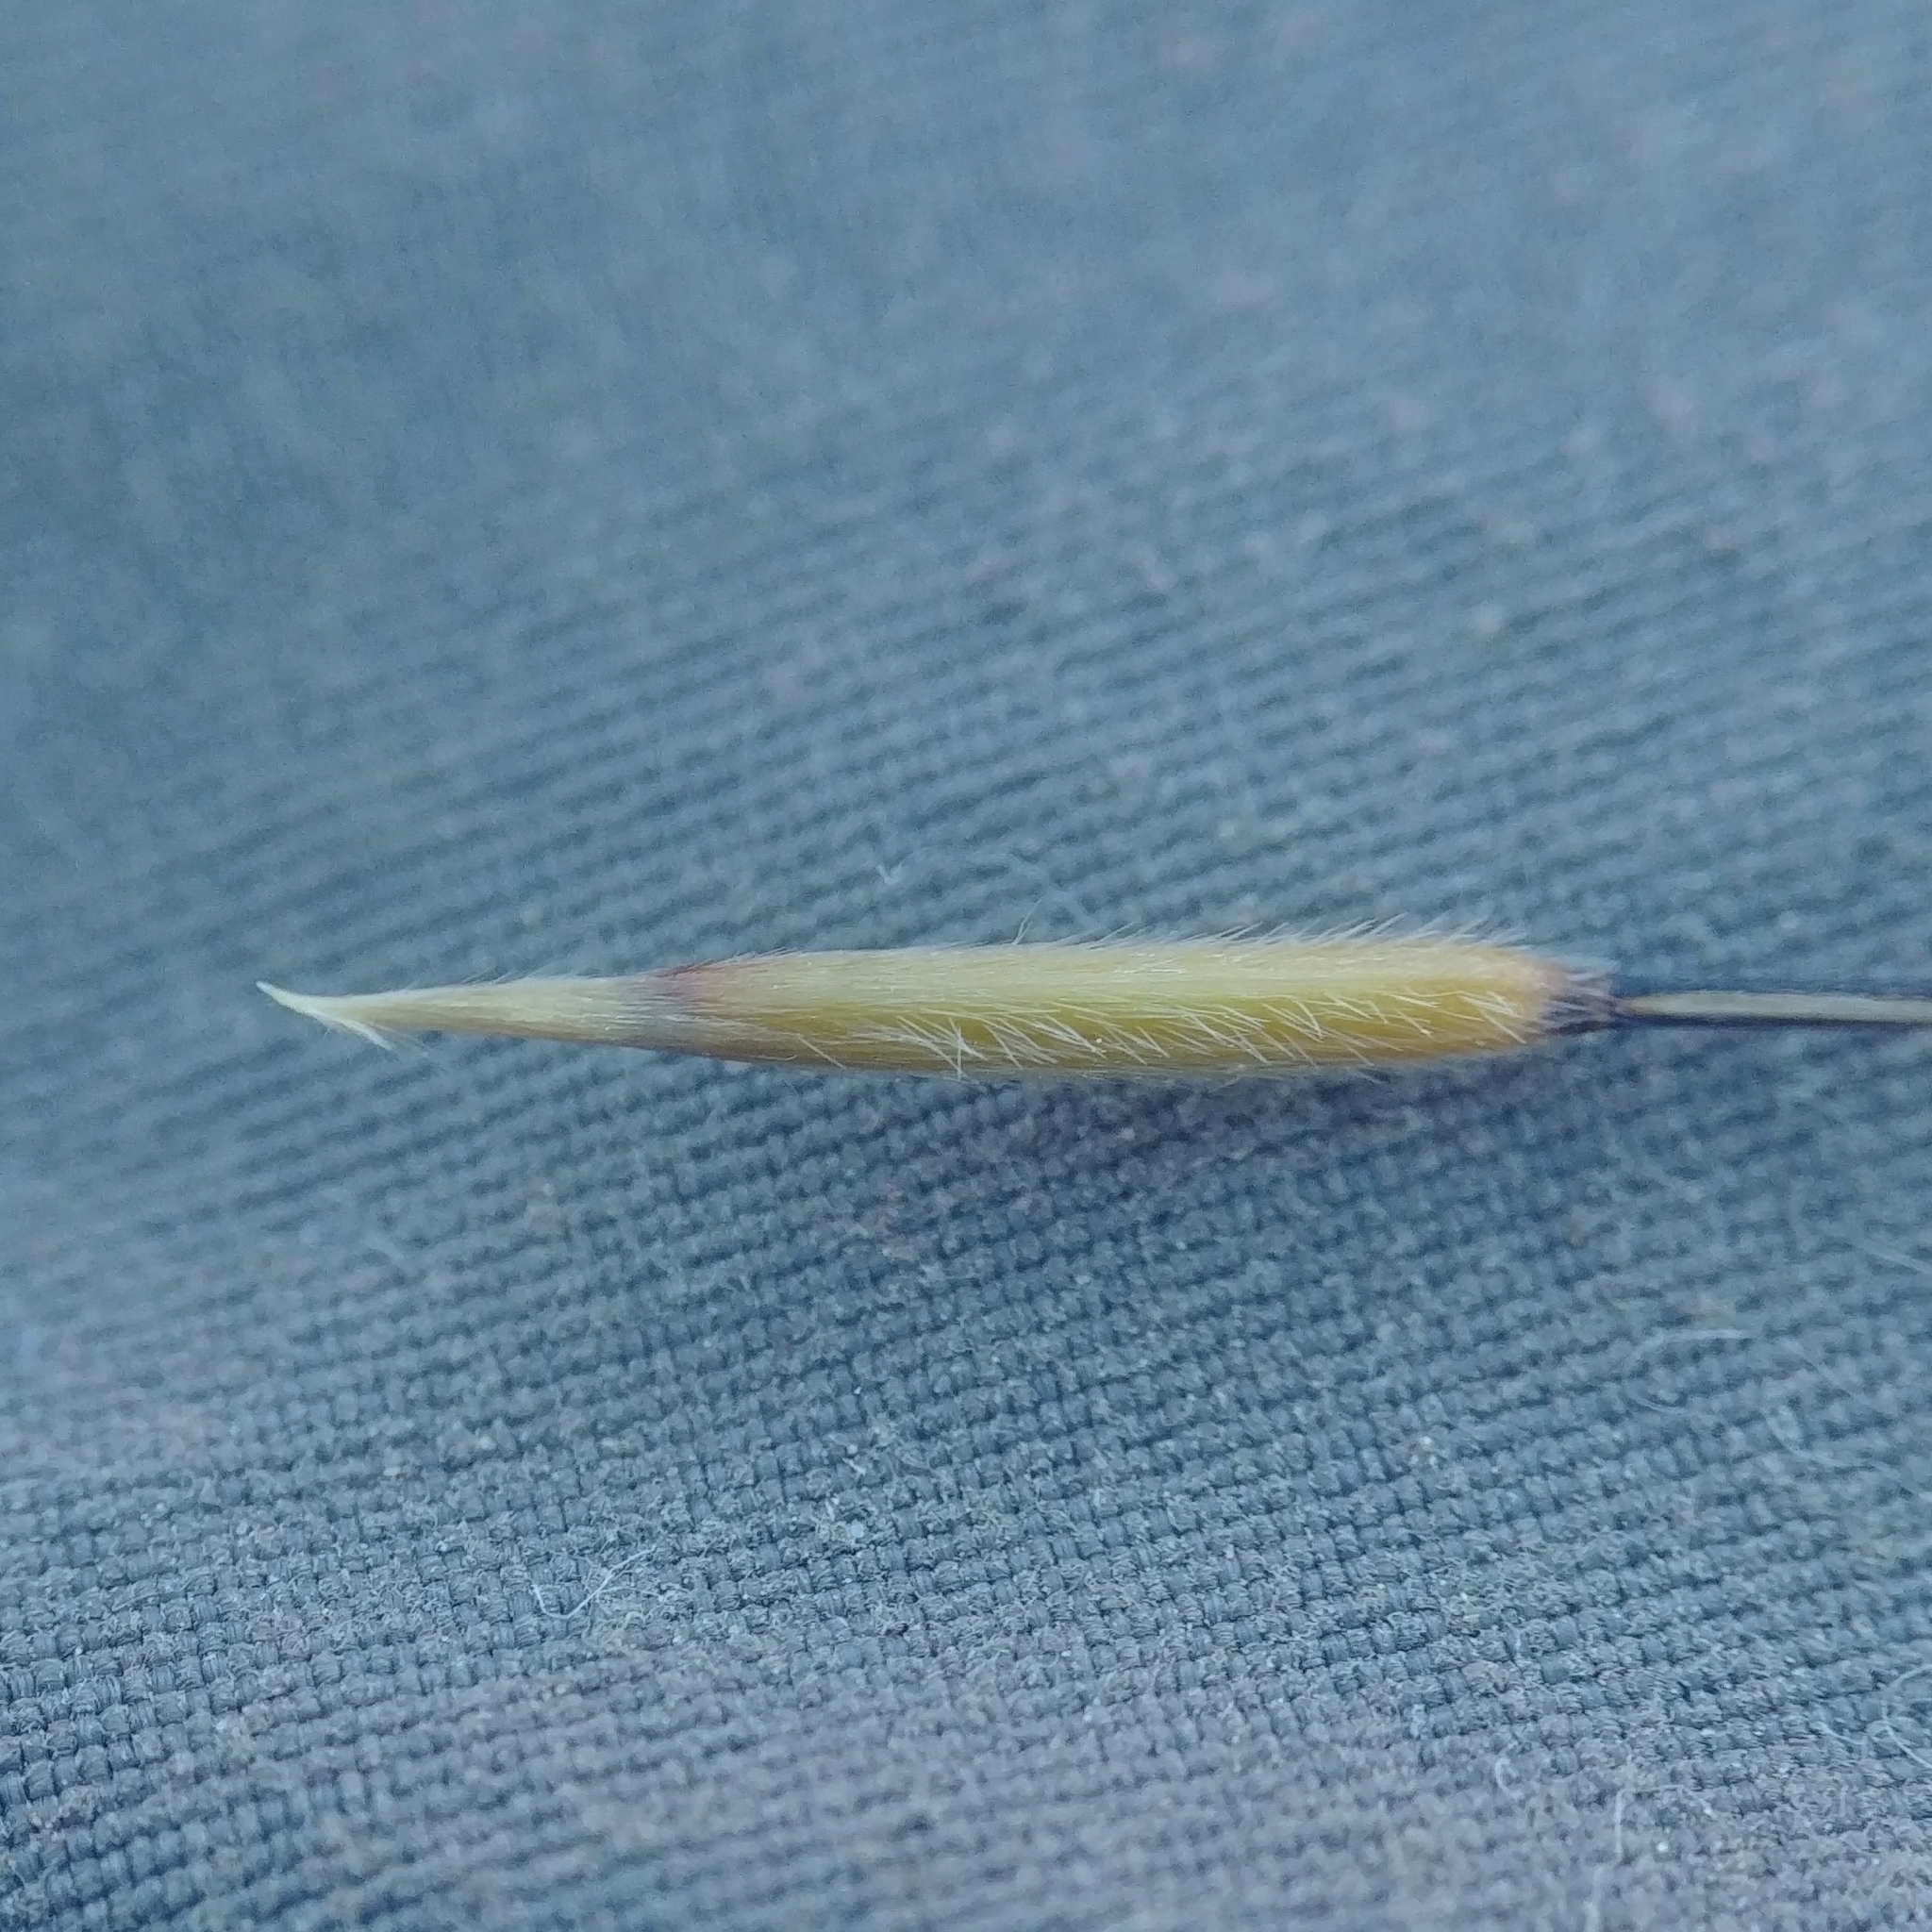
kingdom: Plantae
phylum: Tracheophyta
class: Liliopsida
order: Poales
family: Poaceae
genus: Hesperostipa
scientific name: Hesperostipa comata
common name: Needle-and-thread grass
